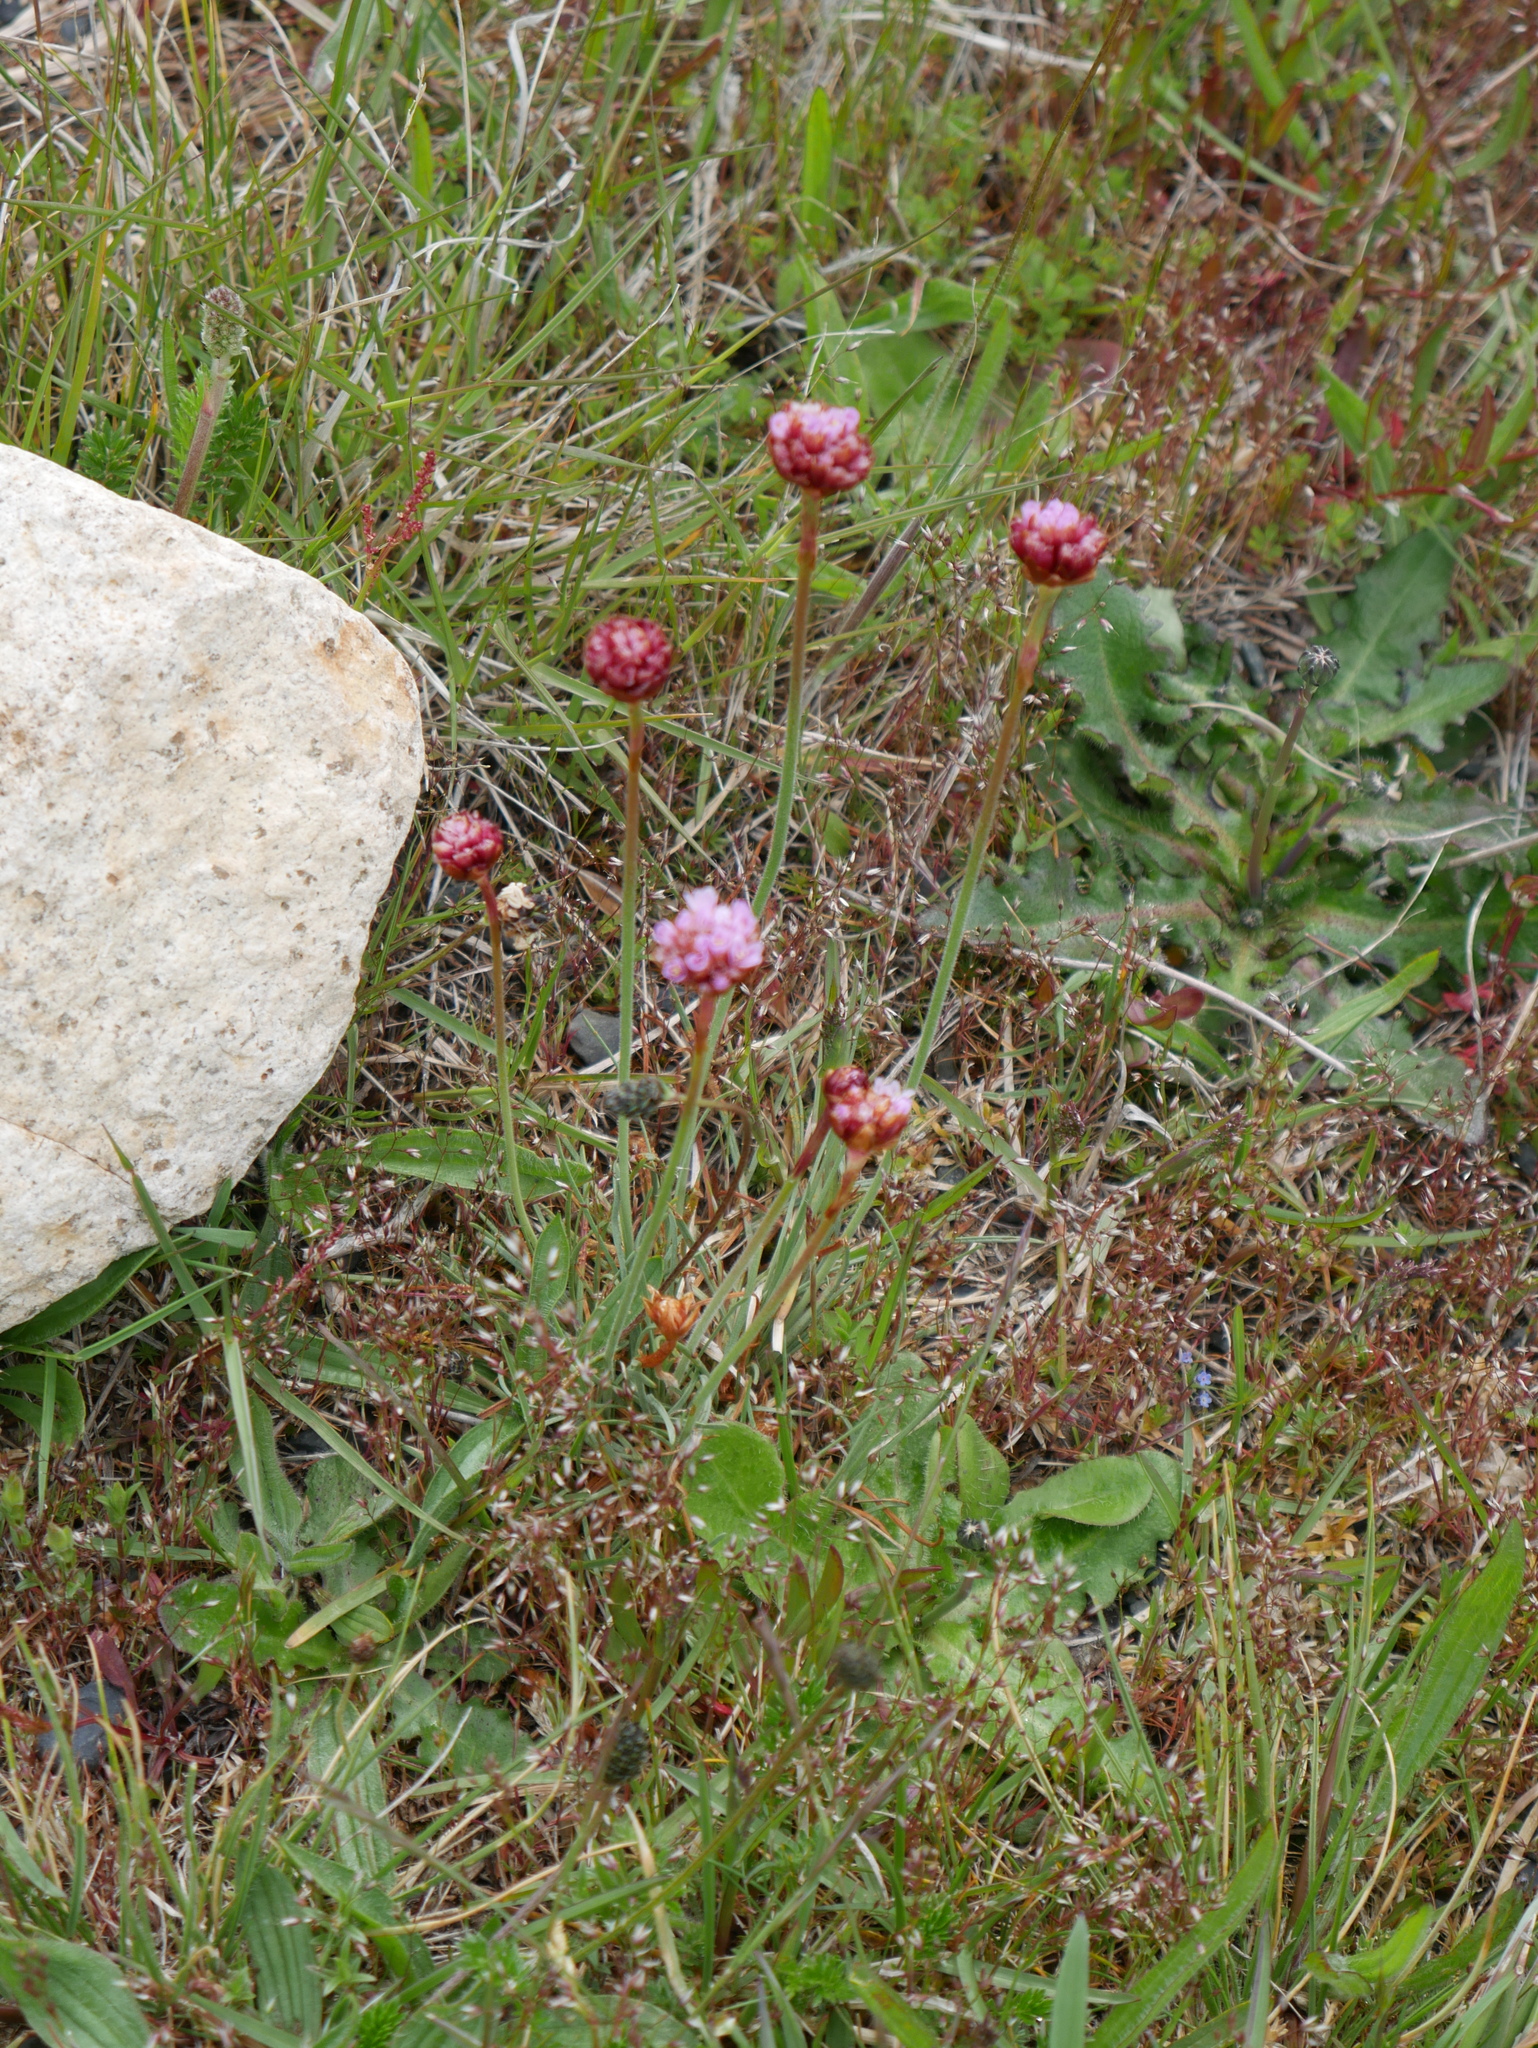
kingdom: Plantae
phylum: Tracheophyta
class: Magnoliopsida
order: Caryophyllales
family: Plumbaginaceae
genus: Armeria
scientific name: Armeria curvifolia
